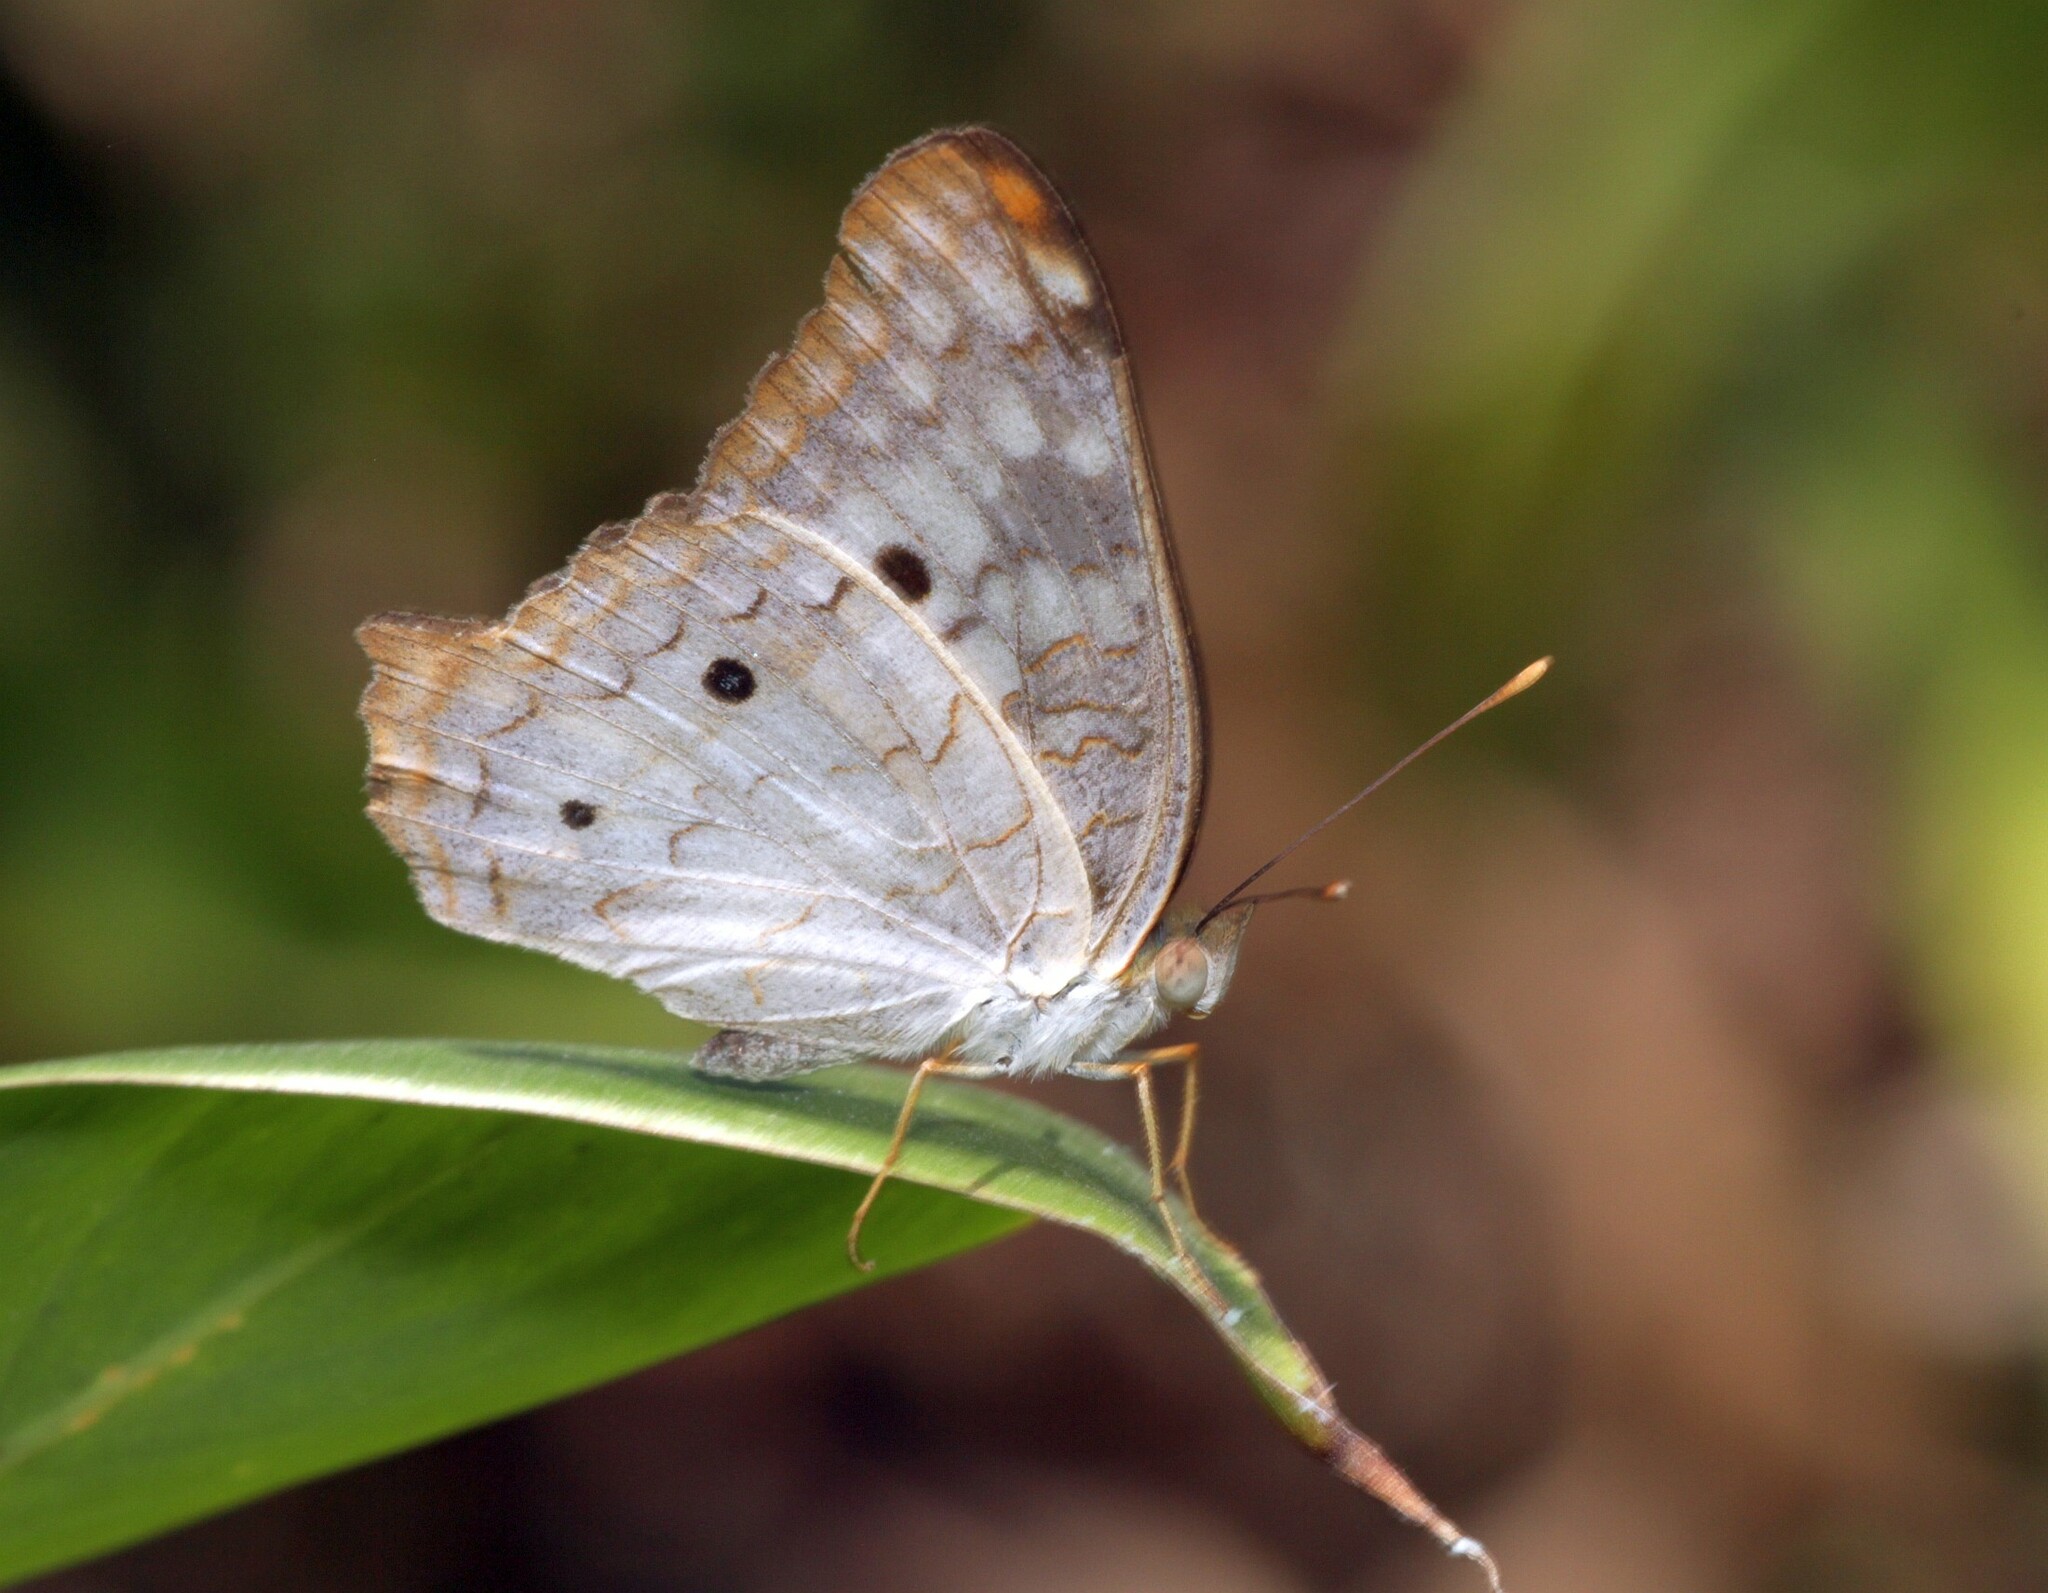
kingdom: Animalia
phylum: Arthropoda
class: Insecta
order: Lepidoptera
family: Nymphalidae
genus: Anartia
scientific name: Anartia jatrophae
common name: White peacock
